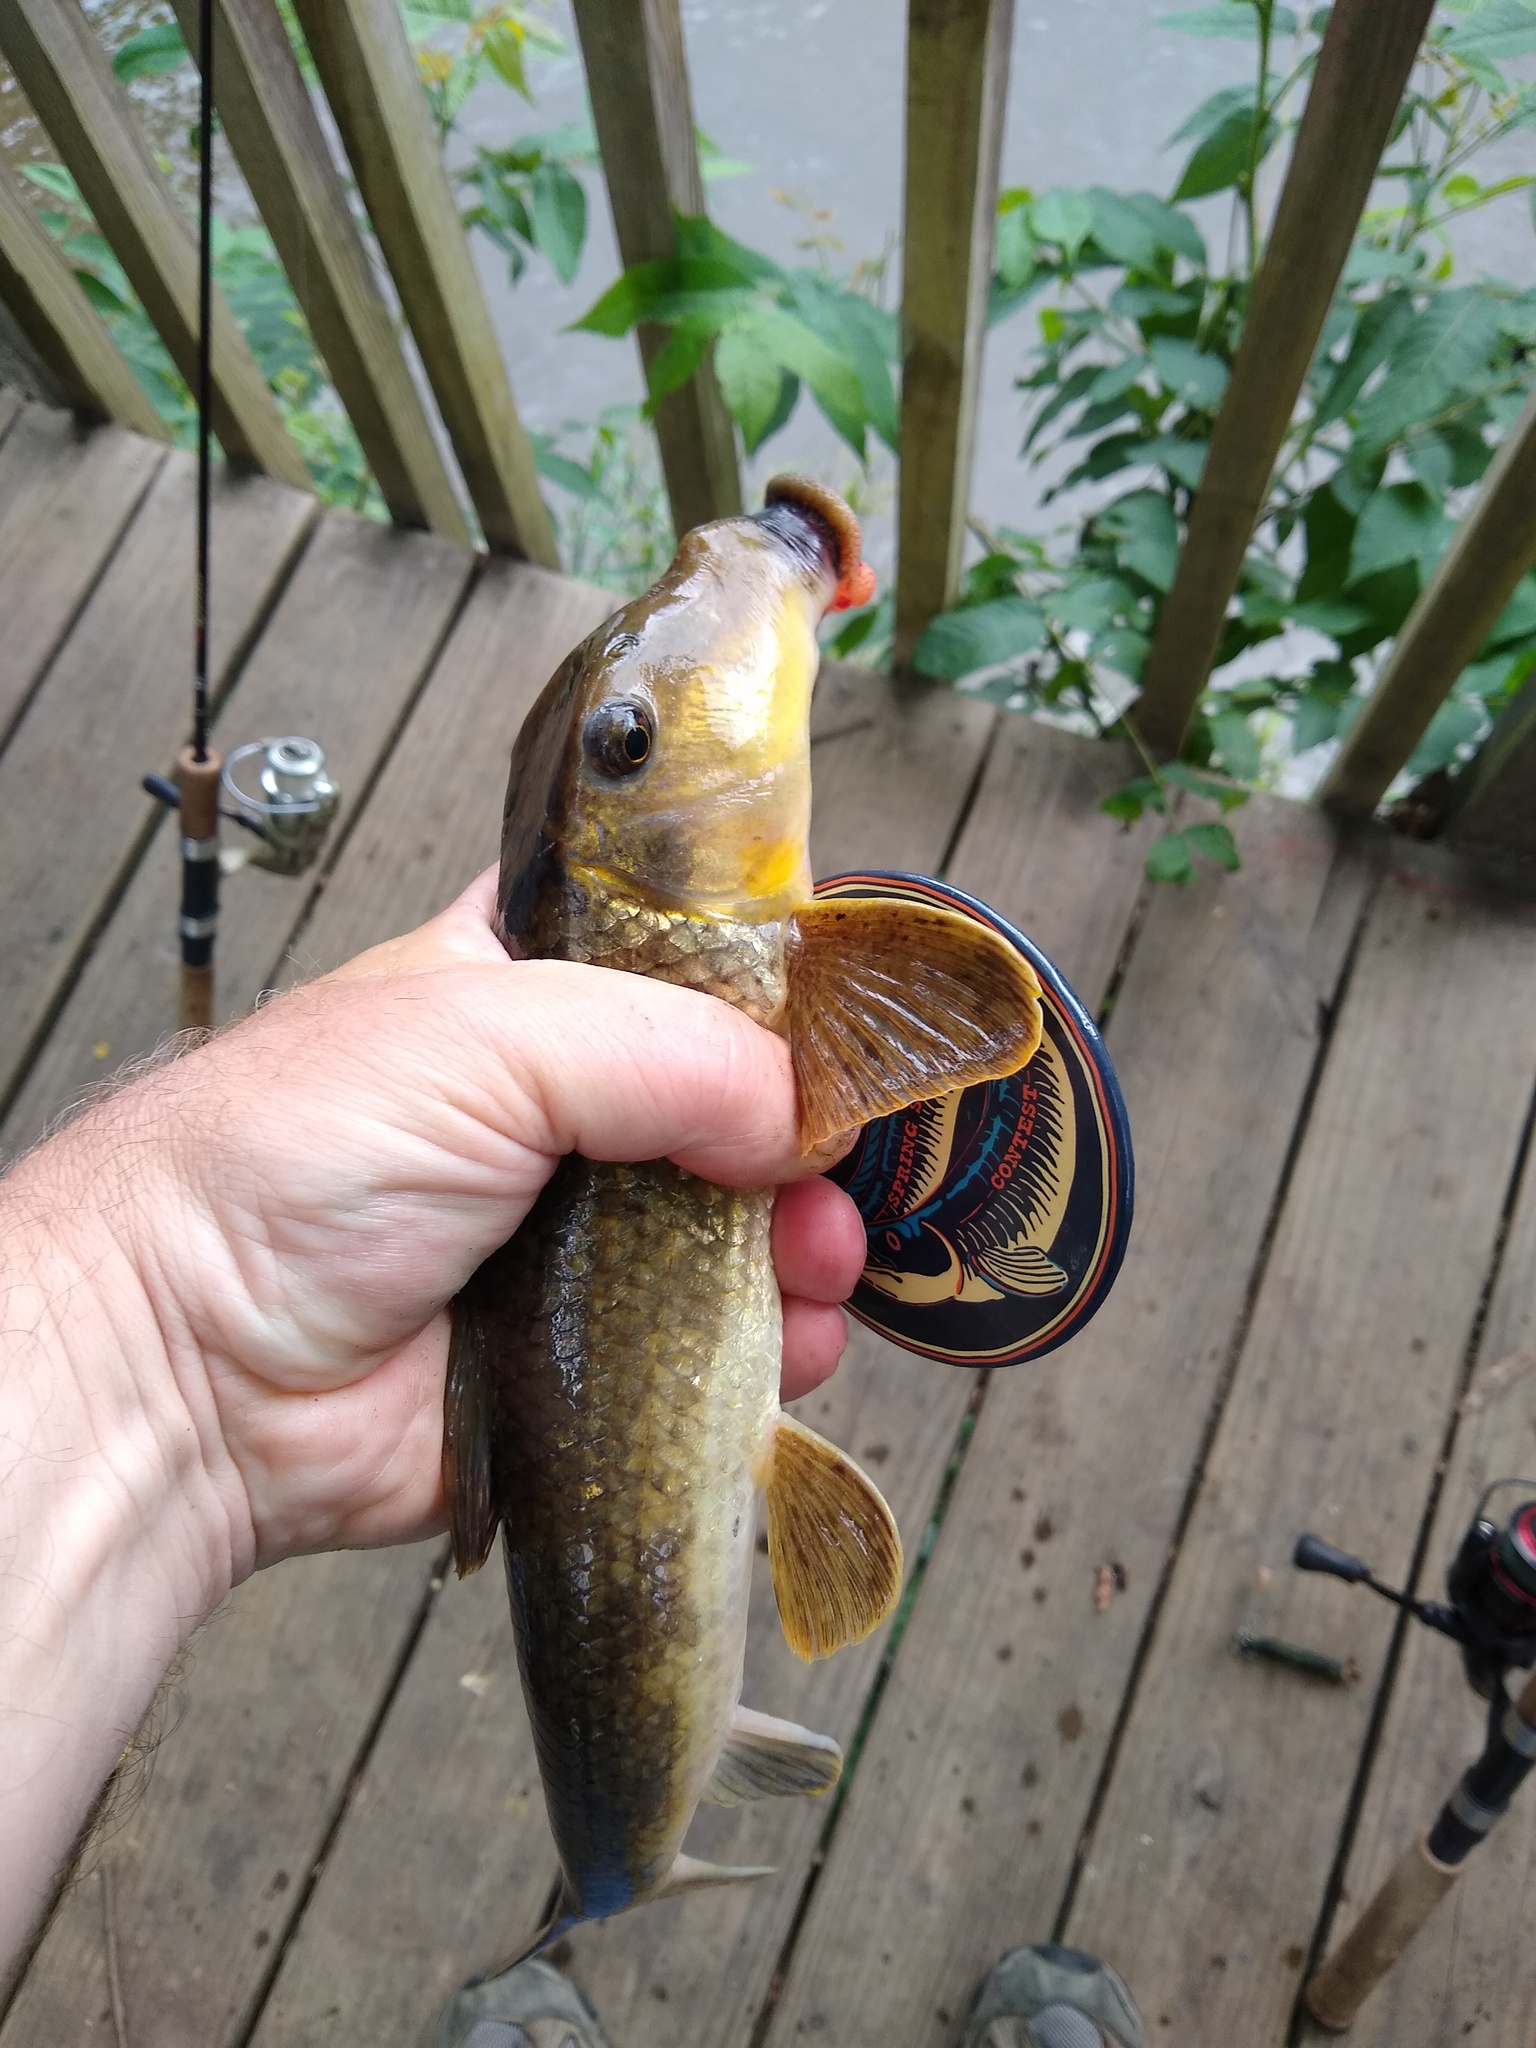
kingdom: Animalia
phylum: Chordata
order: Cypriniformes
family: Catostomidae
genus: Hypentelium
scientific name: Hypentelium nigricans
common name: Northern hog sucker
